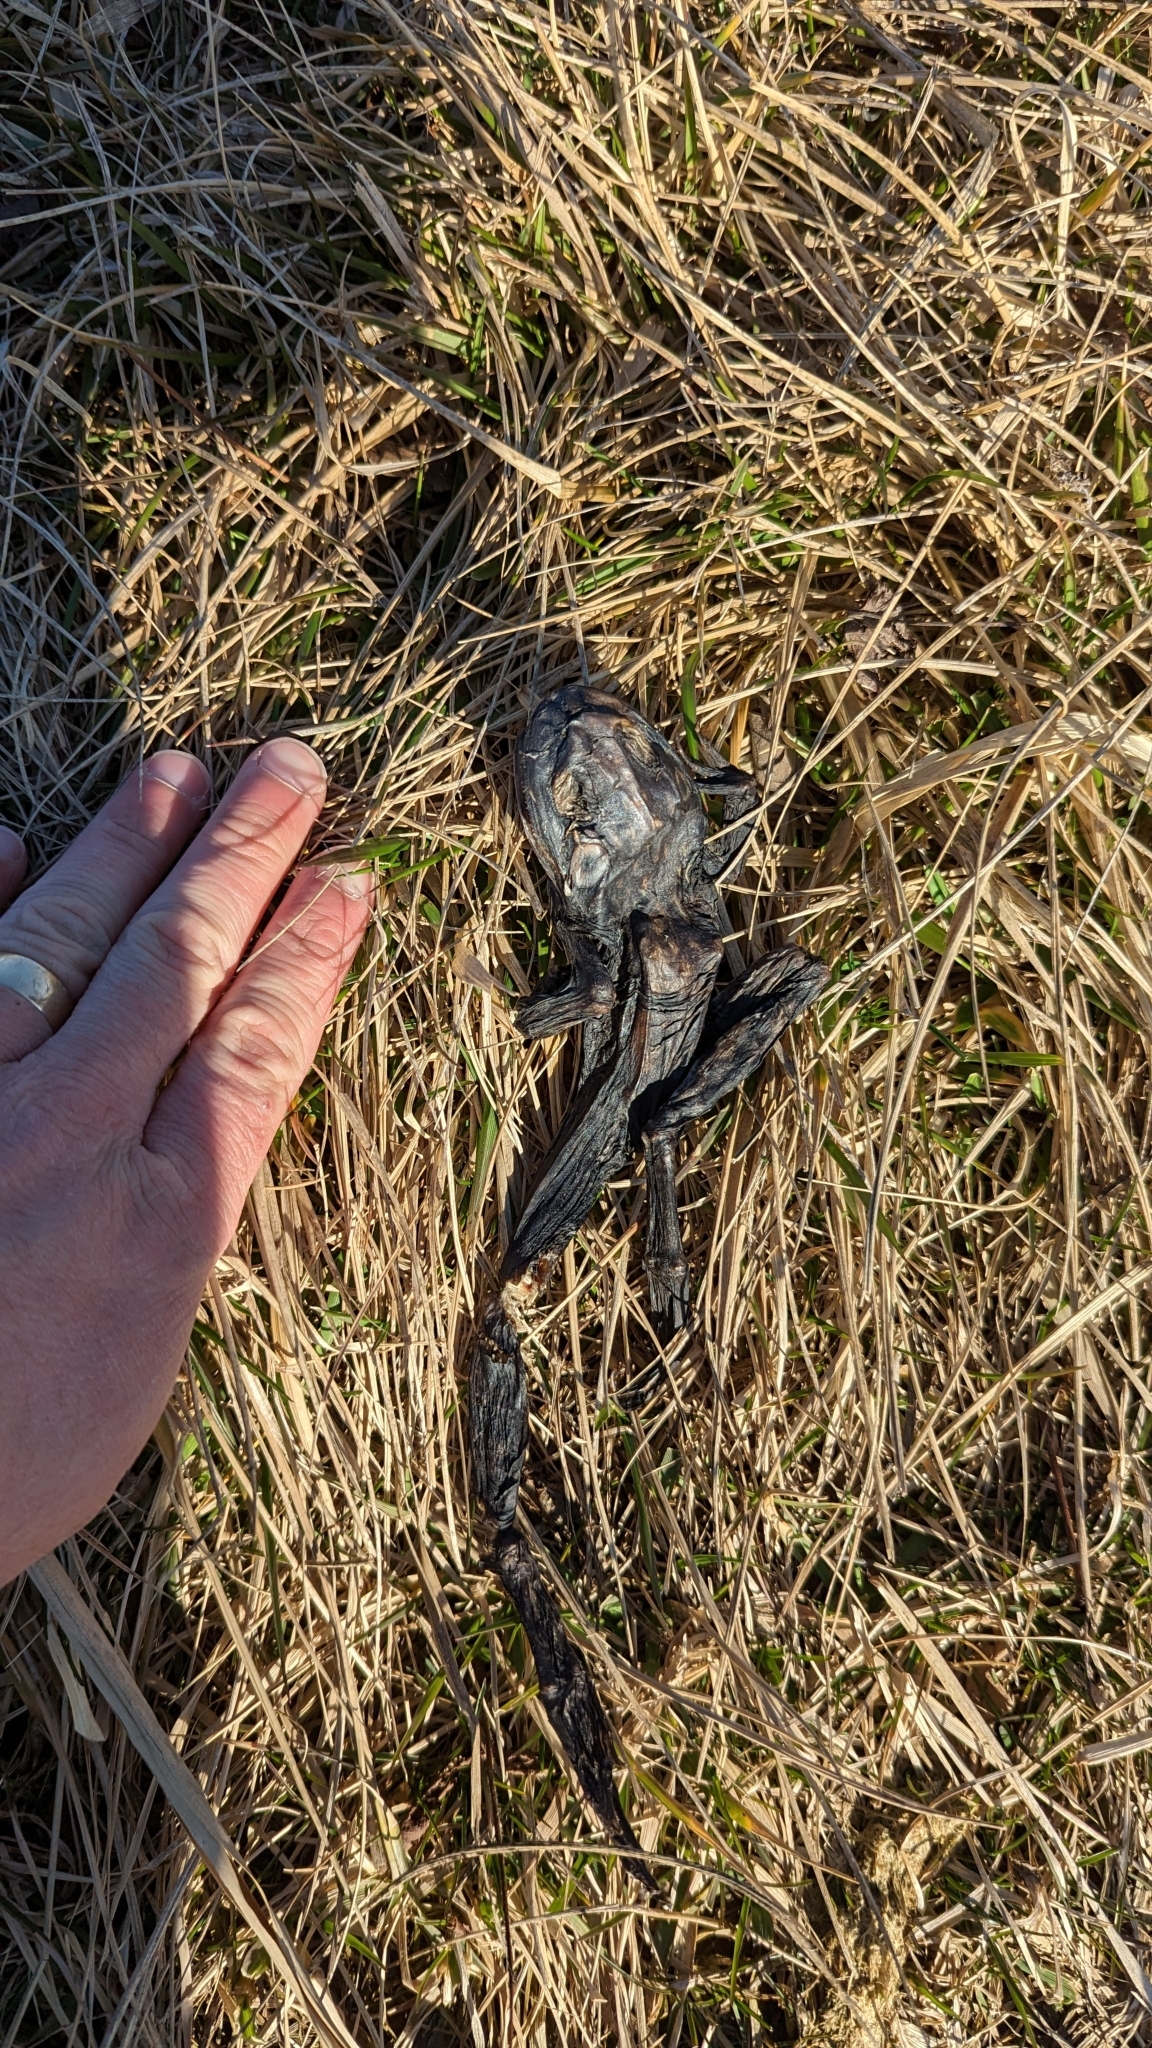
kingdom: Animalia
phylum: Chordata
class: Amphibia
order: Anura
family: Ranidae
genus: Lithobates
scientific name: Lithobates catesbeianus
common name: American bullfrog
